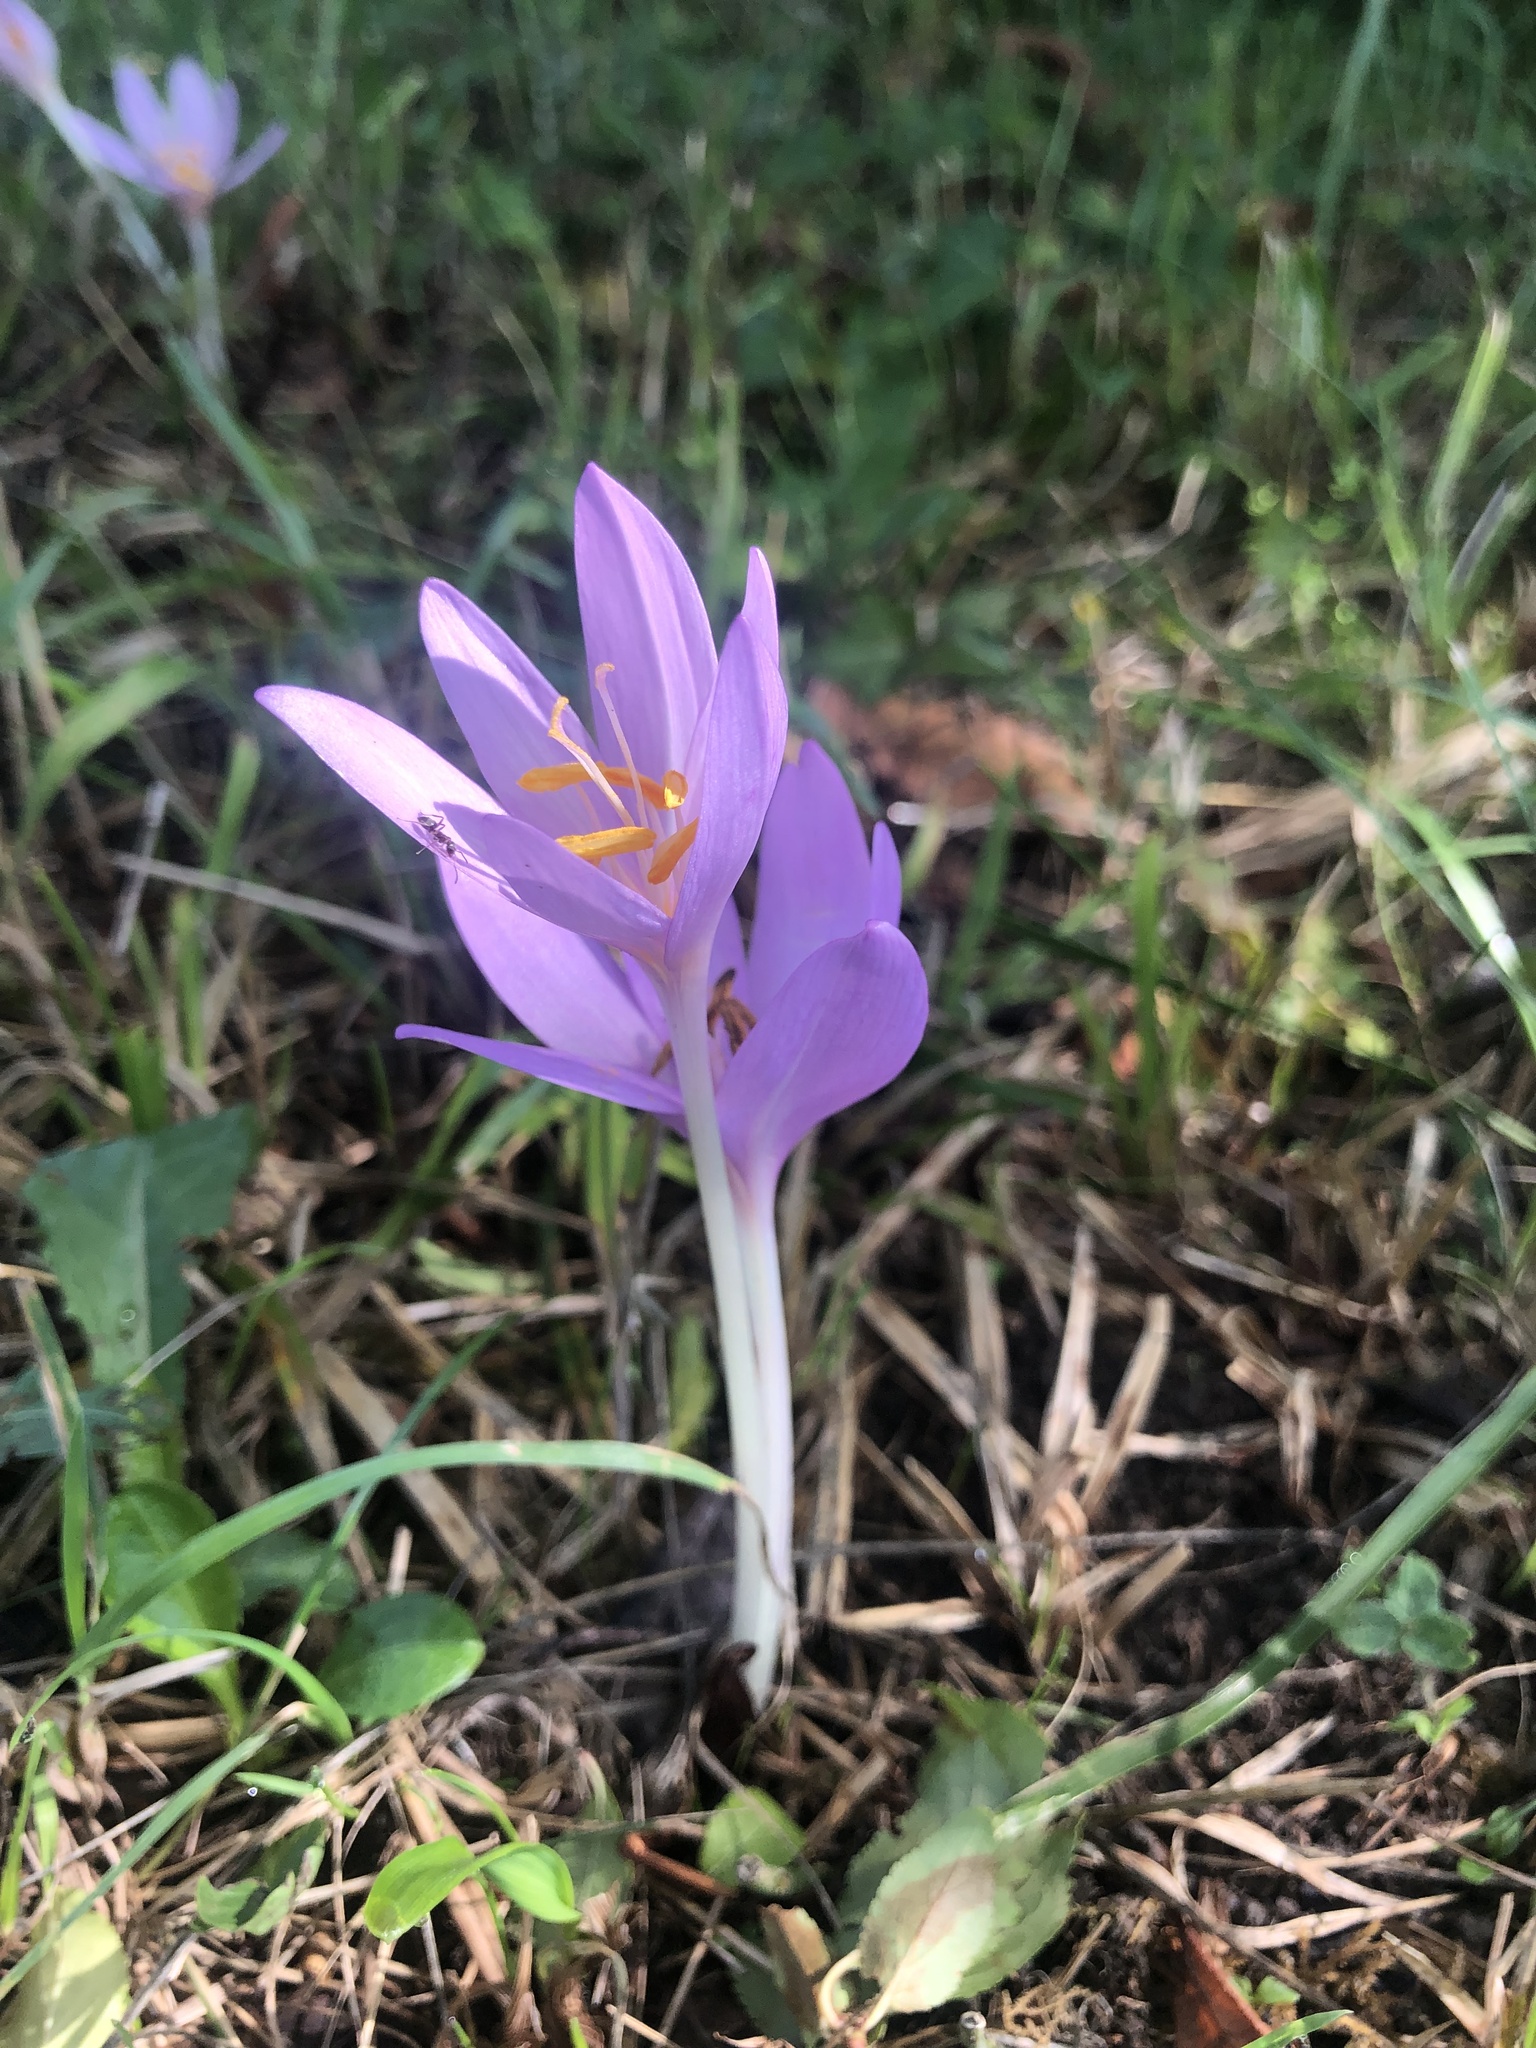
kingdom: Plantae
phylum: Tracheophyta
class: Liliopsida
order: Liliales
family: Colchicaceae
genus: Colchicum
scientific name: Colchicum autumnale
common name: Autumn crocus
